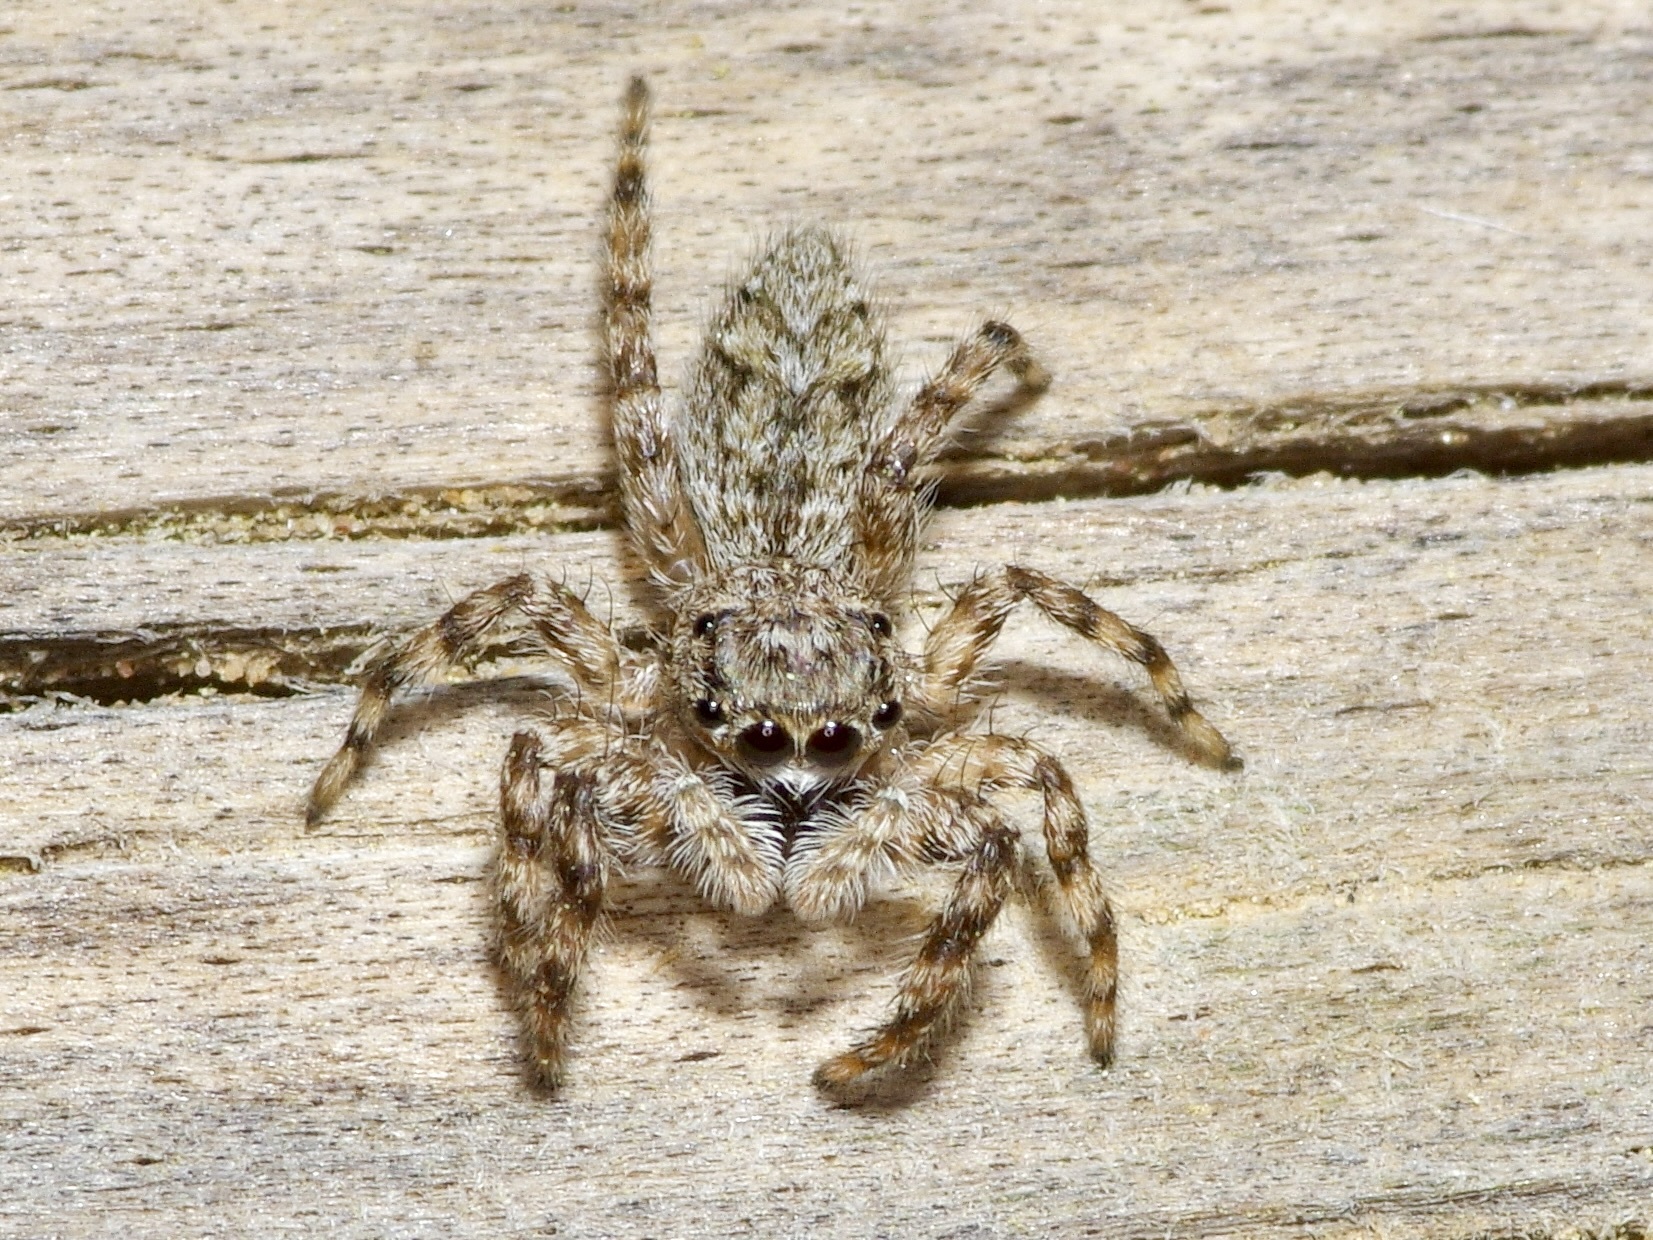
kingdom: Animalia
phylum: Arthropoda
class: Arachnida
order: Araneae
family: Salticidae
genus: Platycryptus
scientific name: Platycryptus undatus
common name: Tan jumping spider
